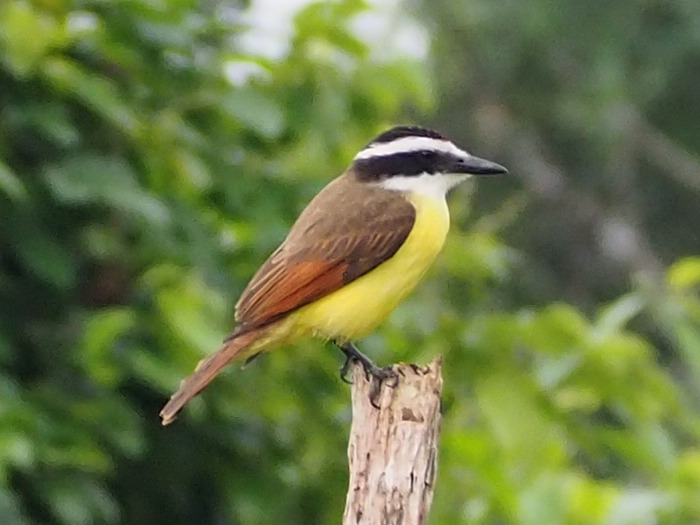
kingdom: Animalia
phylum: Chordata
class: Aves
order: Passeriformes
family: Tyrannidae
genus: Pitangus
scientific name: Pitangus sulphuratus
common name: Great kiskadee
